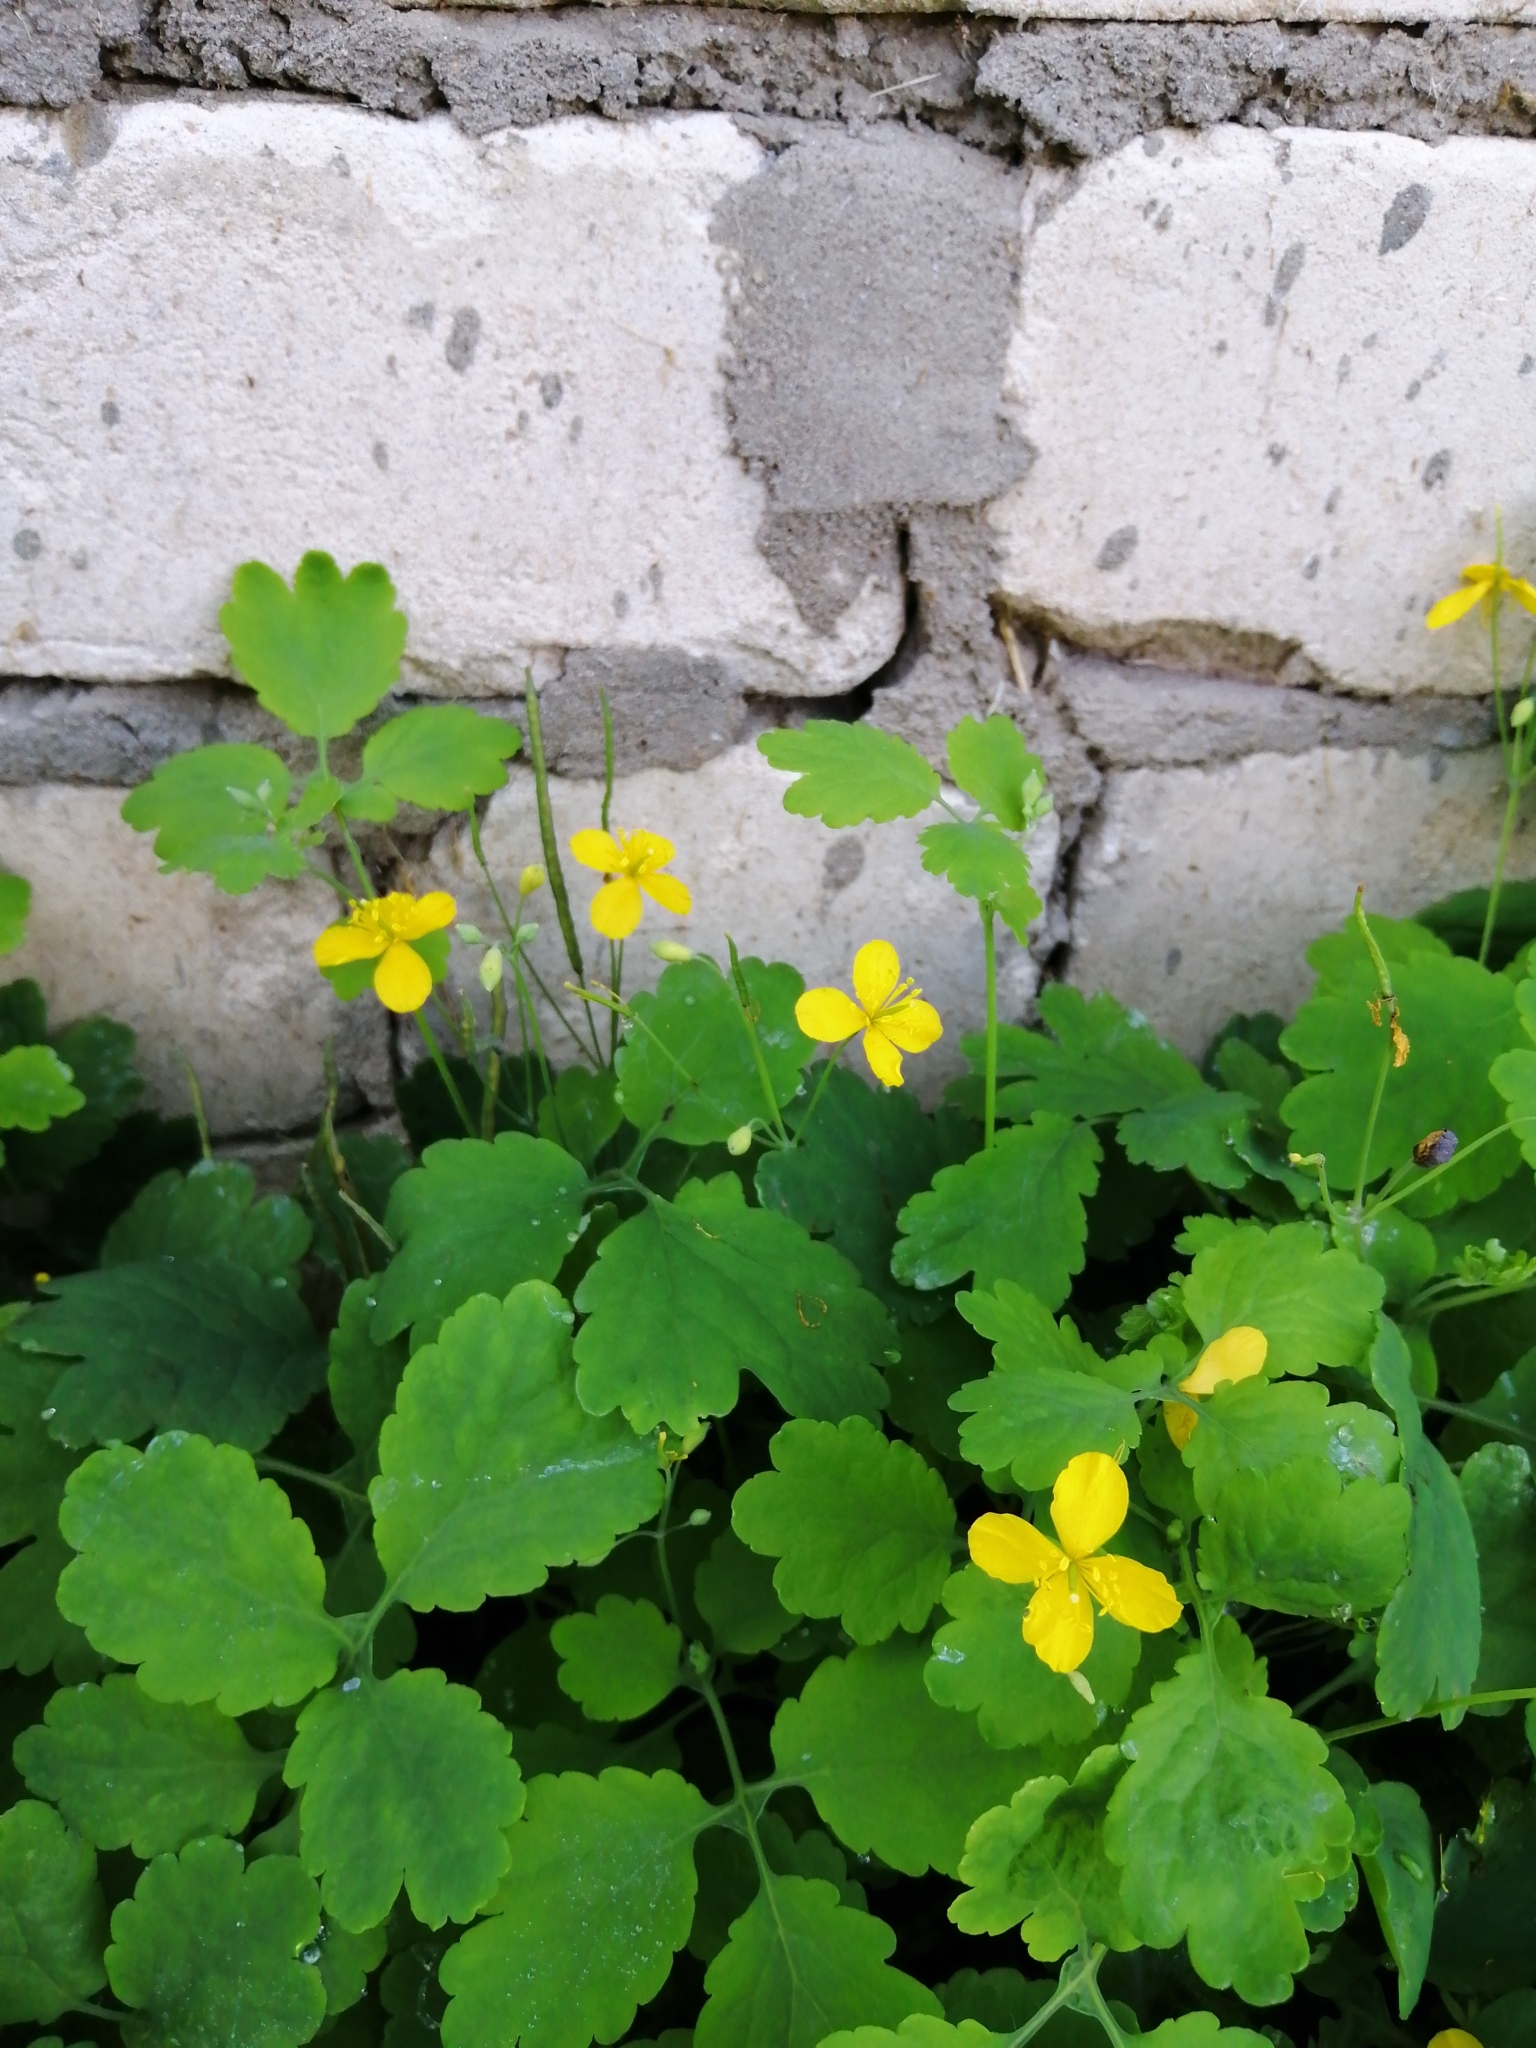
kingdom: Plantae
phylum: Tracheophyta
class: Magnoliopsida
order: Ranunculales
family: Papaveraceae
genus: Chelidonium
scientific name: Chelidonium majus
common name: Greater celandine
